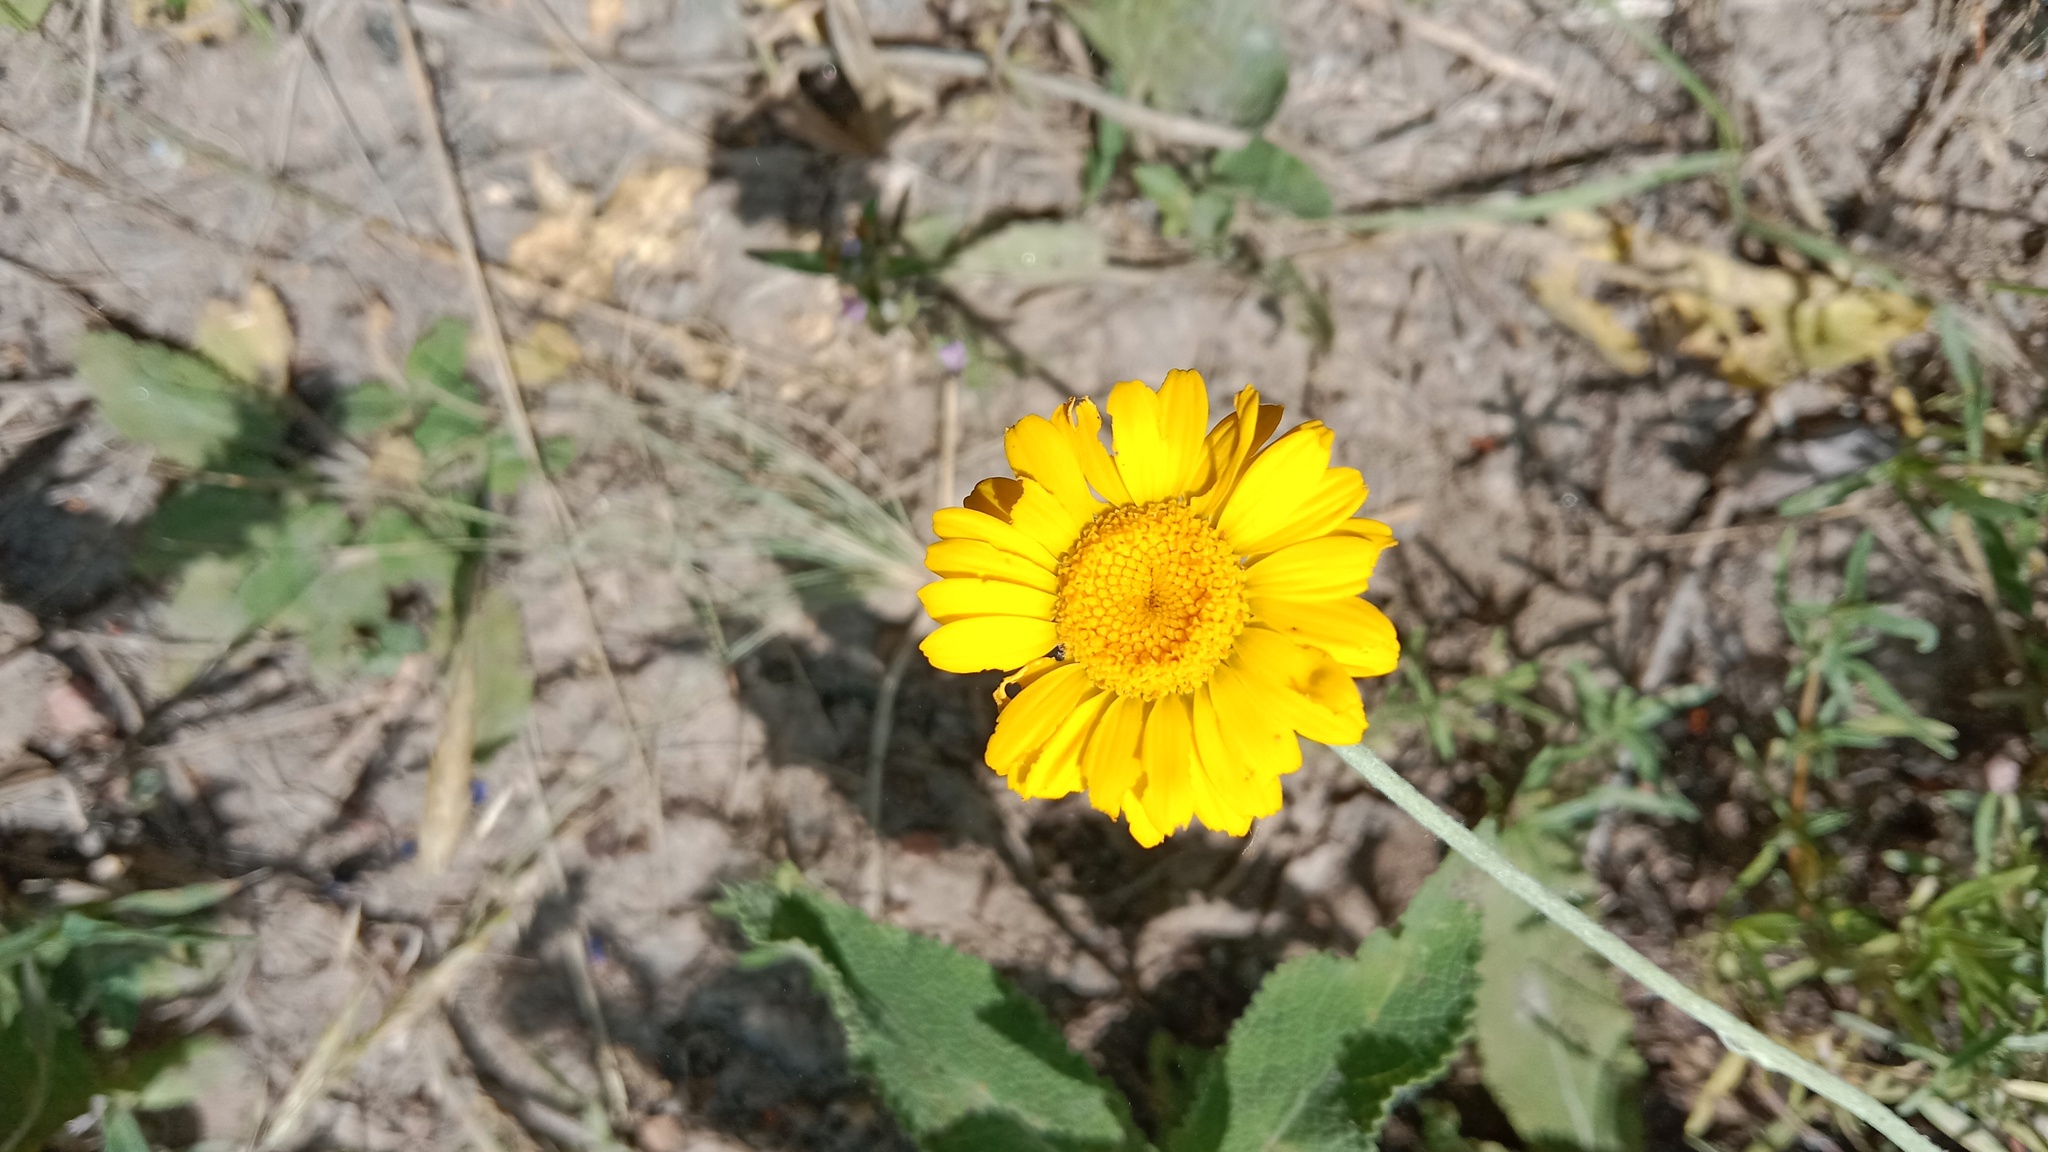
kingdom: Plantae
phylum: Tracheophyta
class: Magnoliopsida
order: Asterales
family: Asteraceae
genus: Cota
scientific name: Cota tinctoria
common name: Golden chamomile
